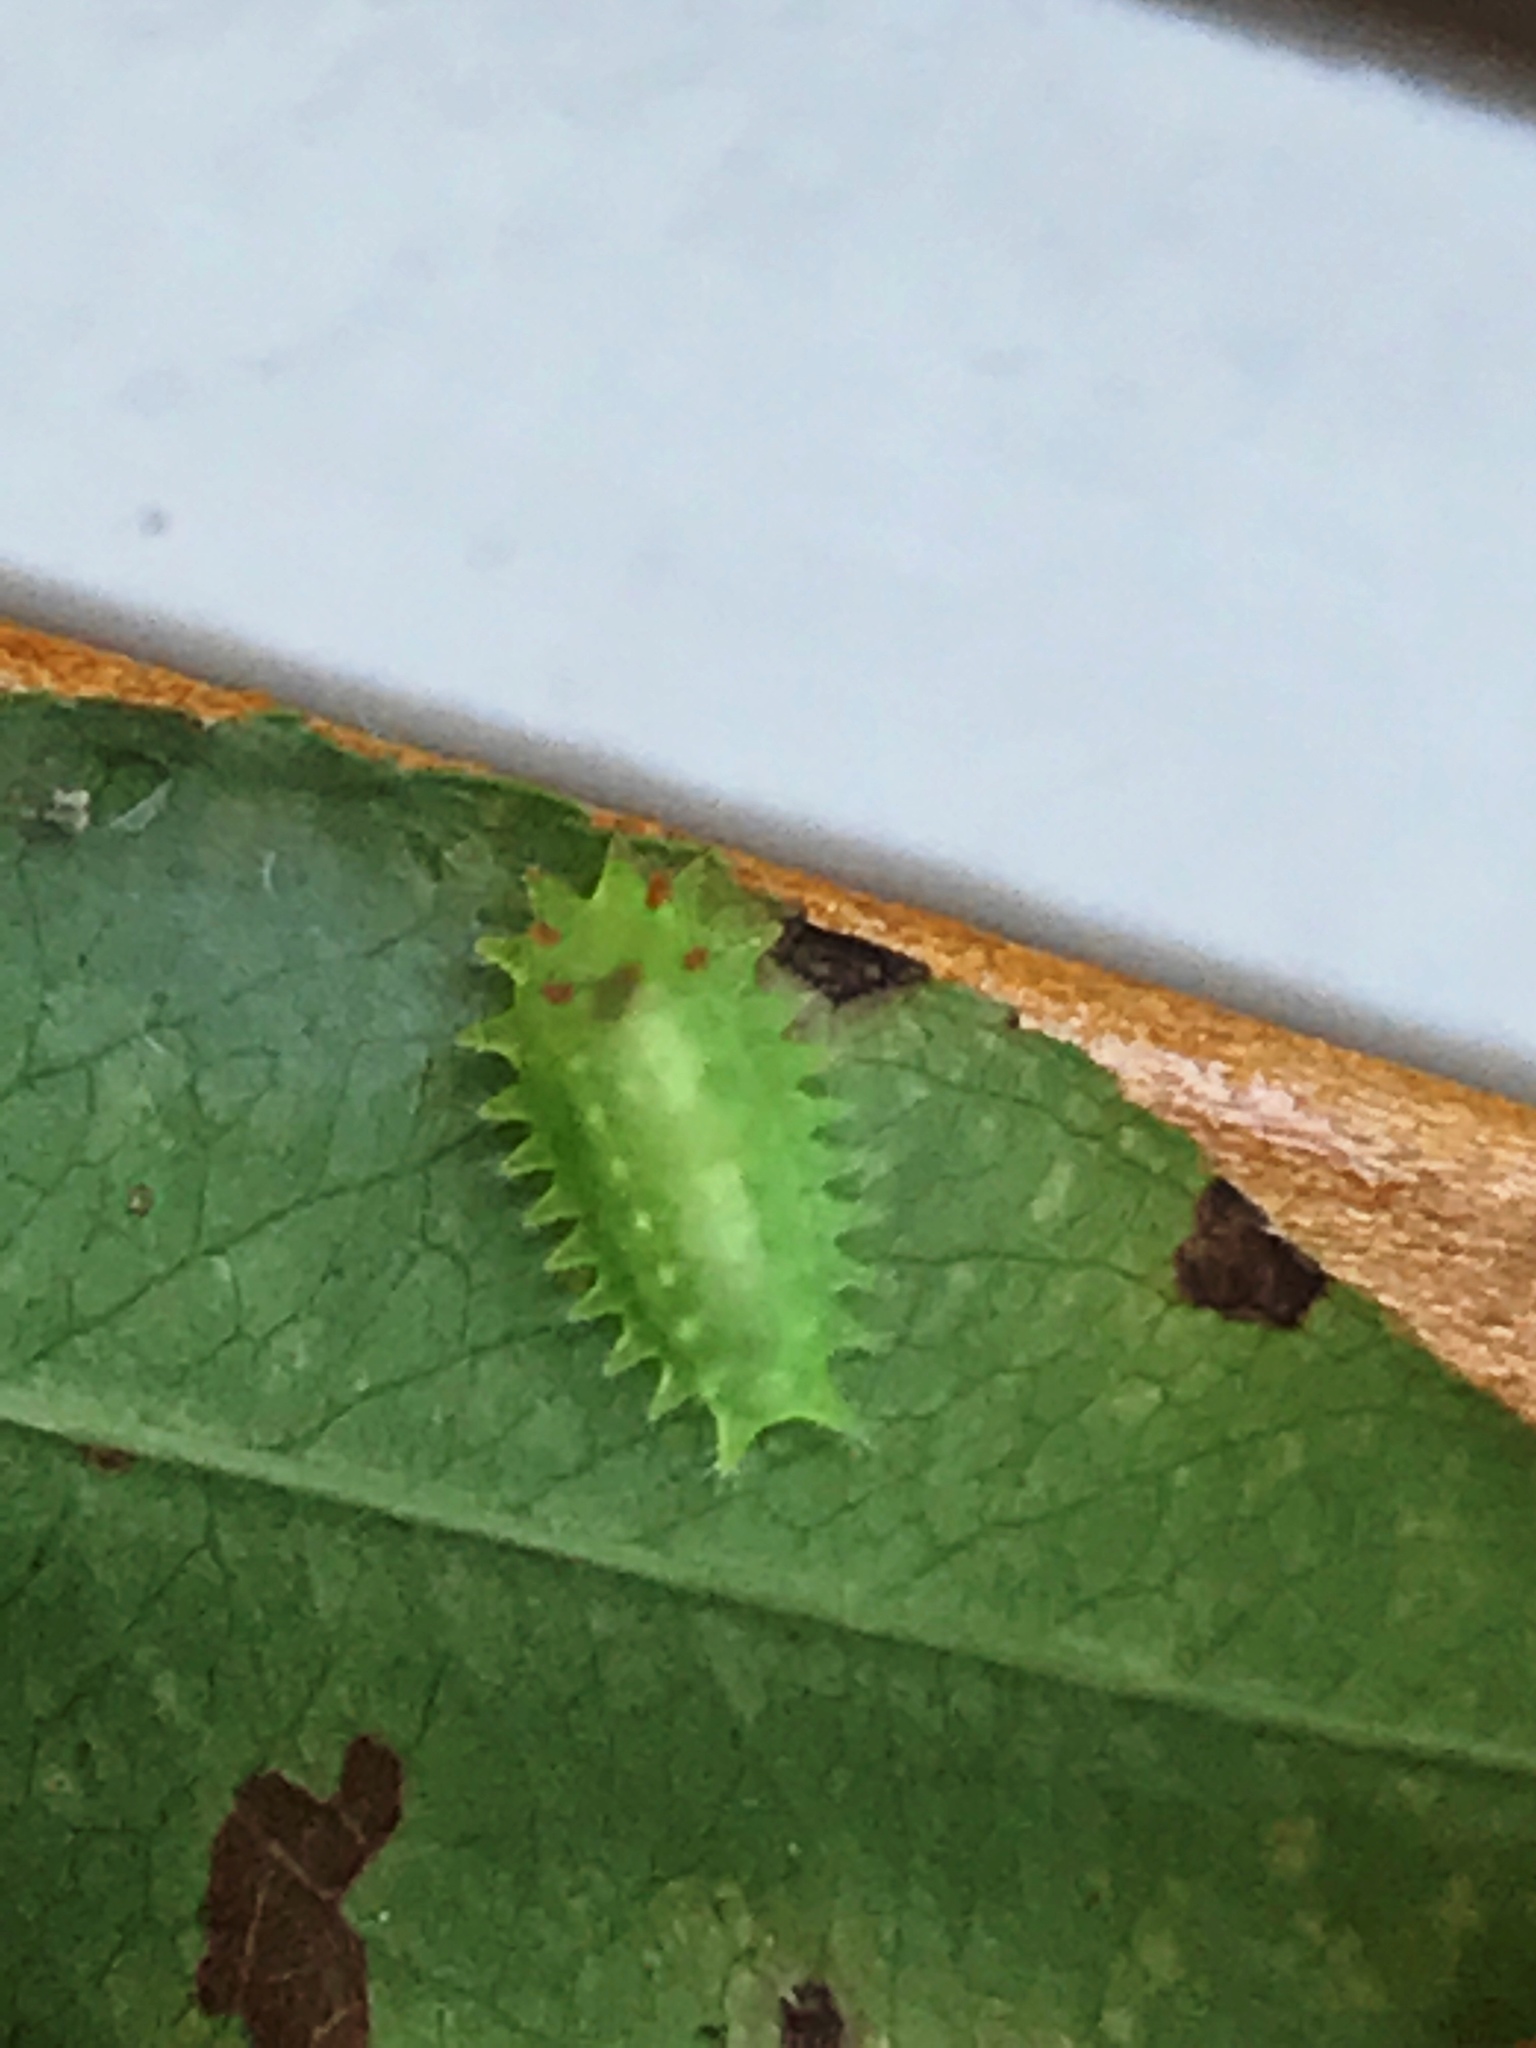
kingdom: Animalia
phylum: Arthropoda
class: Insecta
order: Lepidoptera
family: Limacodidae
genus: Natada
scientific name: Natada nasoni
